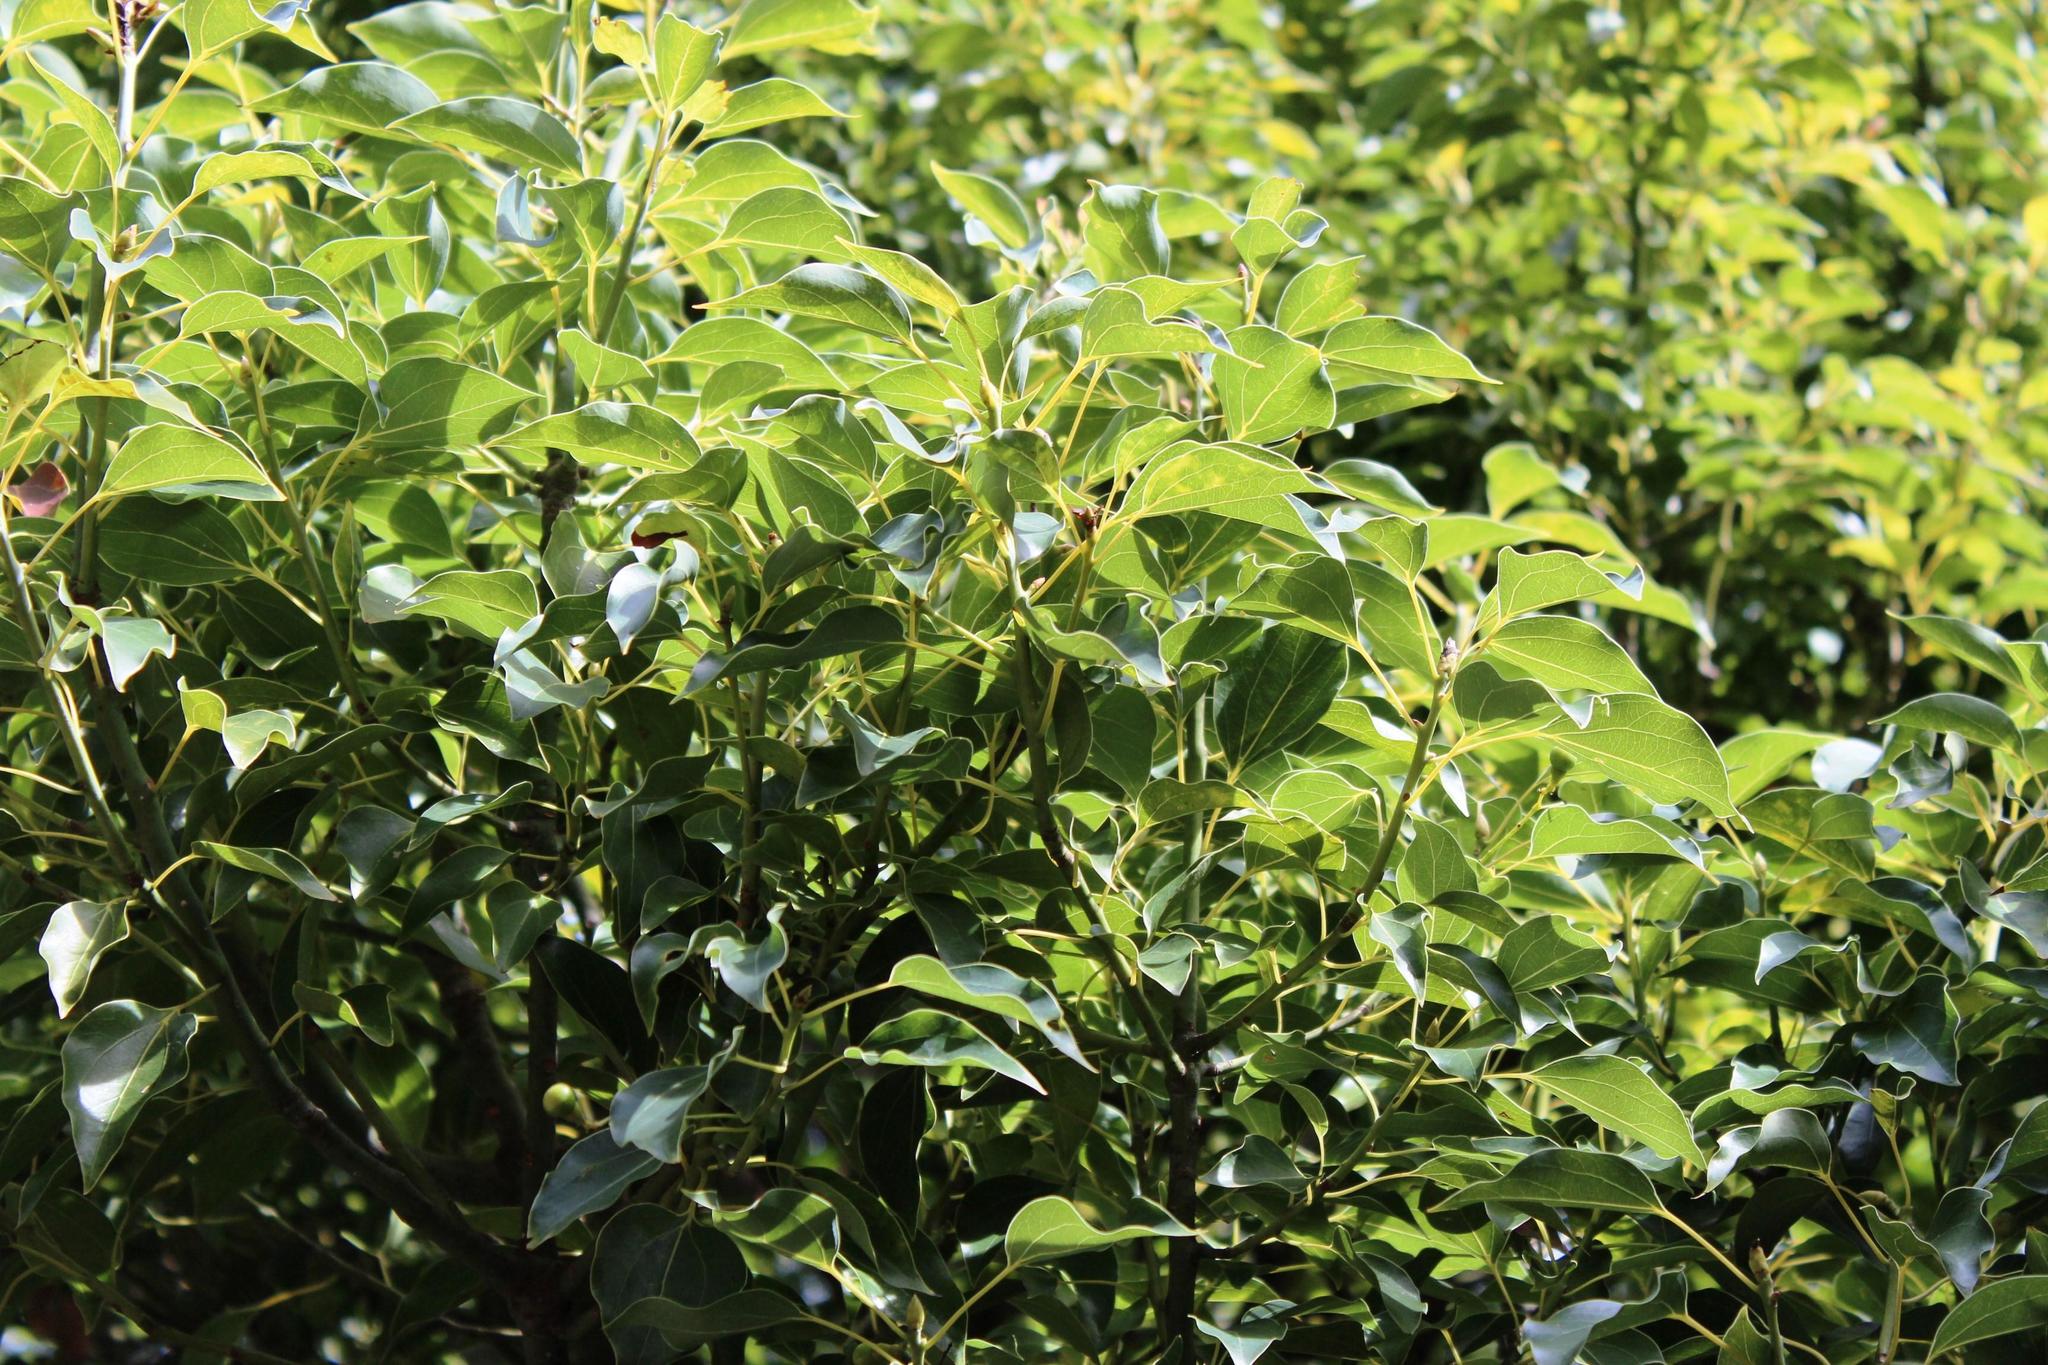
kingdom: Plantae
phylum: Tracheophyta
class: Magnoliopsida
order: Laurales
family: Lauraceae
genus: Cinnamomum
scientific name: Cinnamomum camphora
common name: Camphortree
